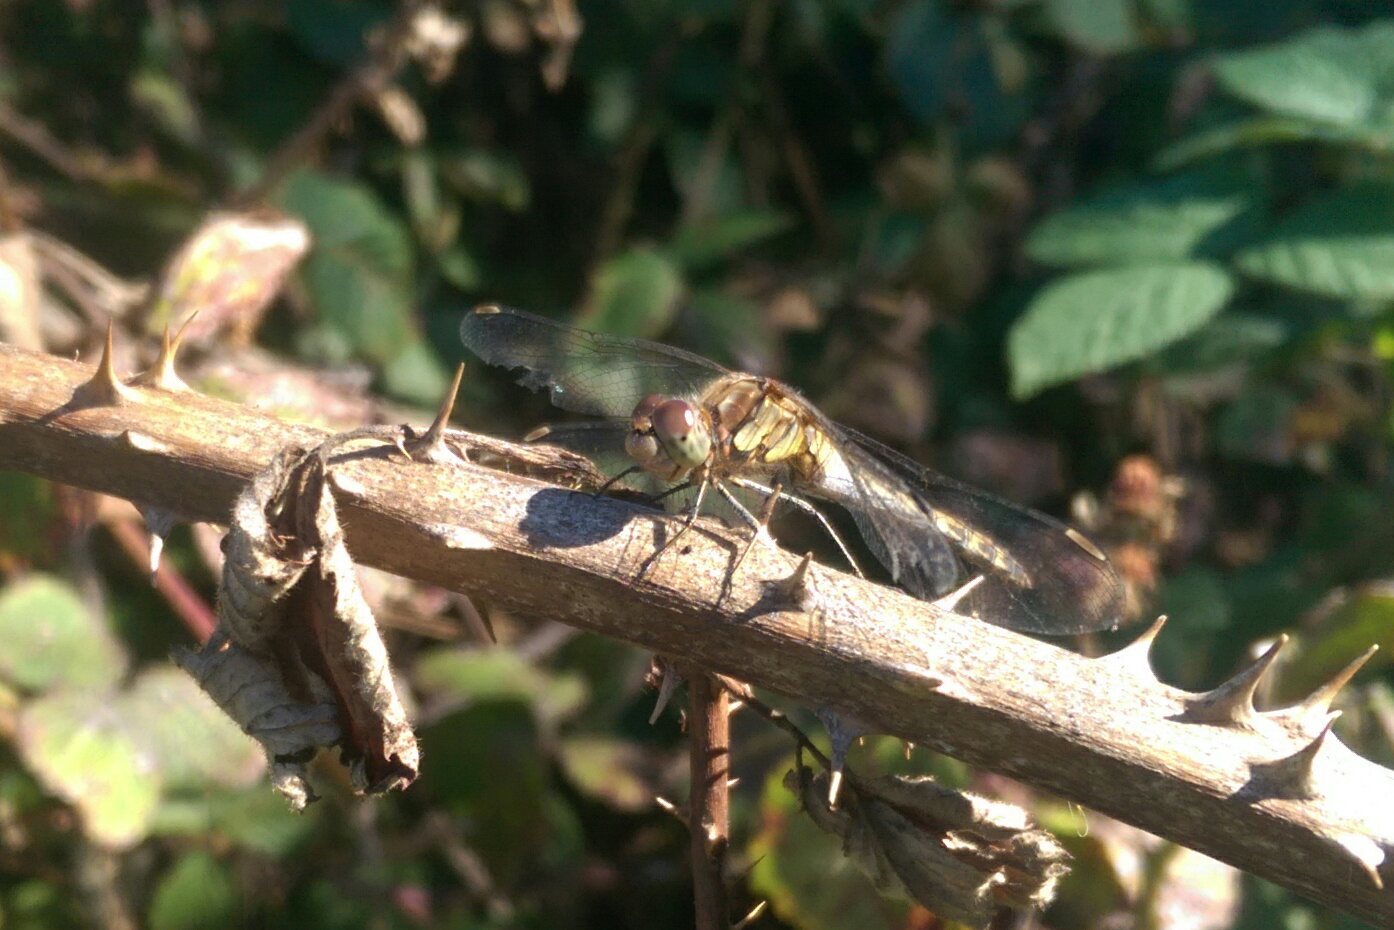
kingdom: Animalia
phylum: Arthropoda
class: Insecta
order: Odonata
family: Libellulidae
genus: Sympetrum
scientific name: Sympetrum striolatum
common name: Common darter
